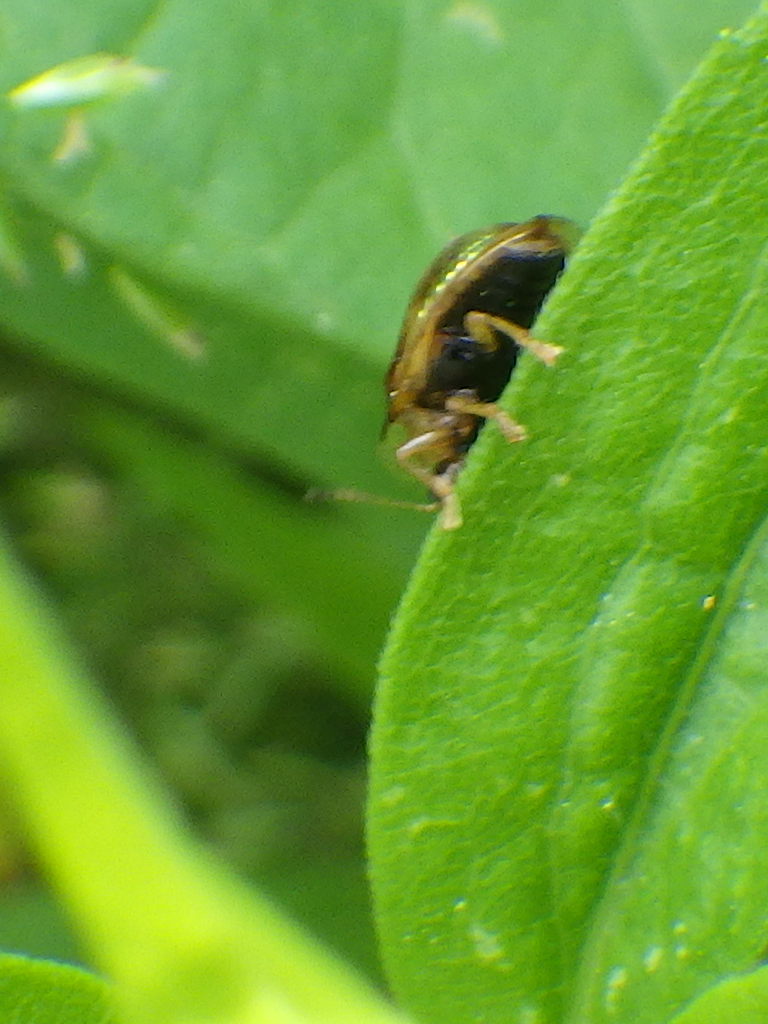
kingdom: Animalia
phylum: Arthropoda
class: Insecta
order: Coleoptera
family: Chrysomelidae
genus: Deloyala
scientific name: Deloyala guttata
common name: Mottled tortoise beetle
